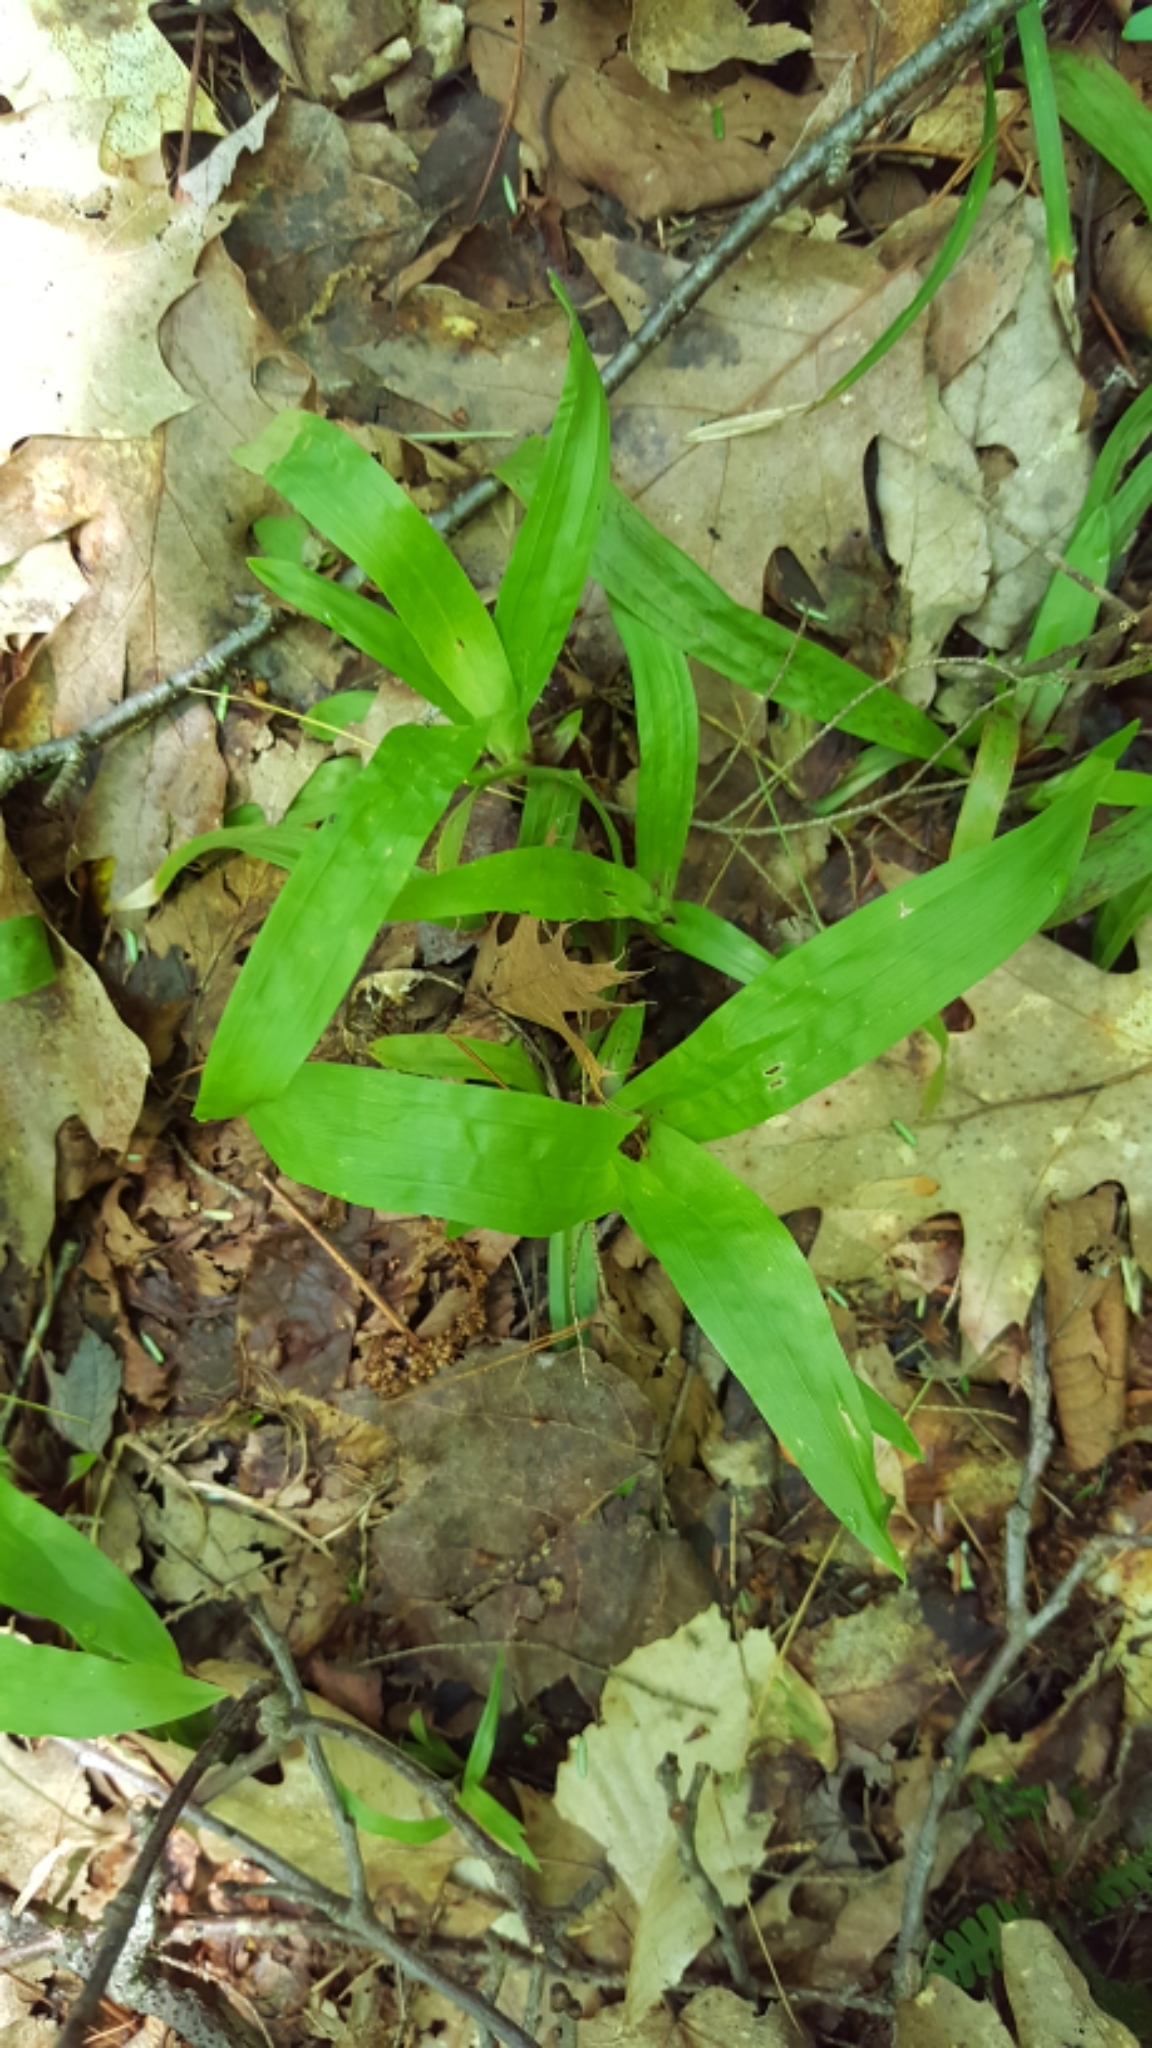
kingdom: Plantae
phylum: Tracheophyta
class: Liliopsida
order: Poales
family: Cyperaceae
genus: Carex
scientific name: Carex plantaginea
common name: Plantain-leaved sedge
